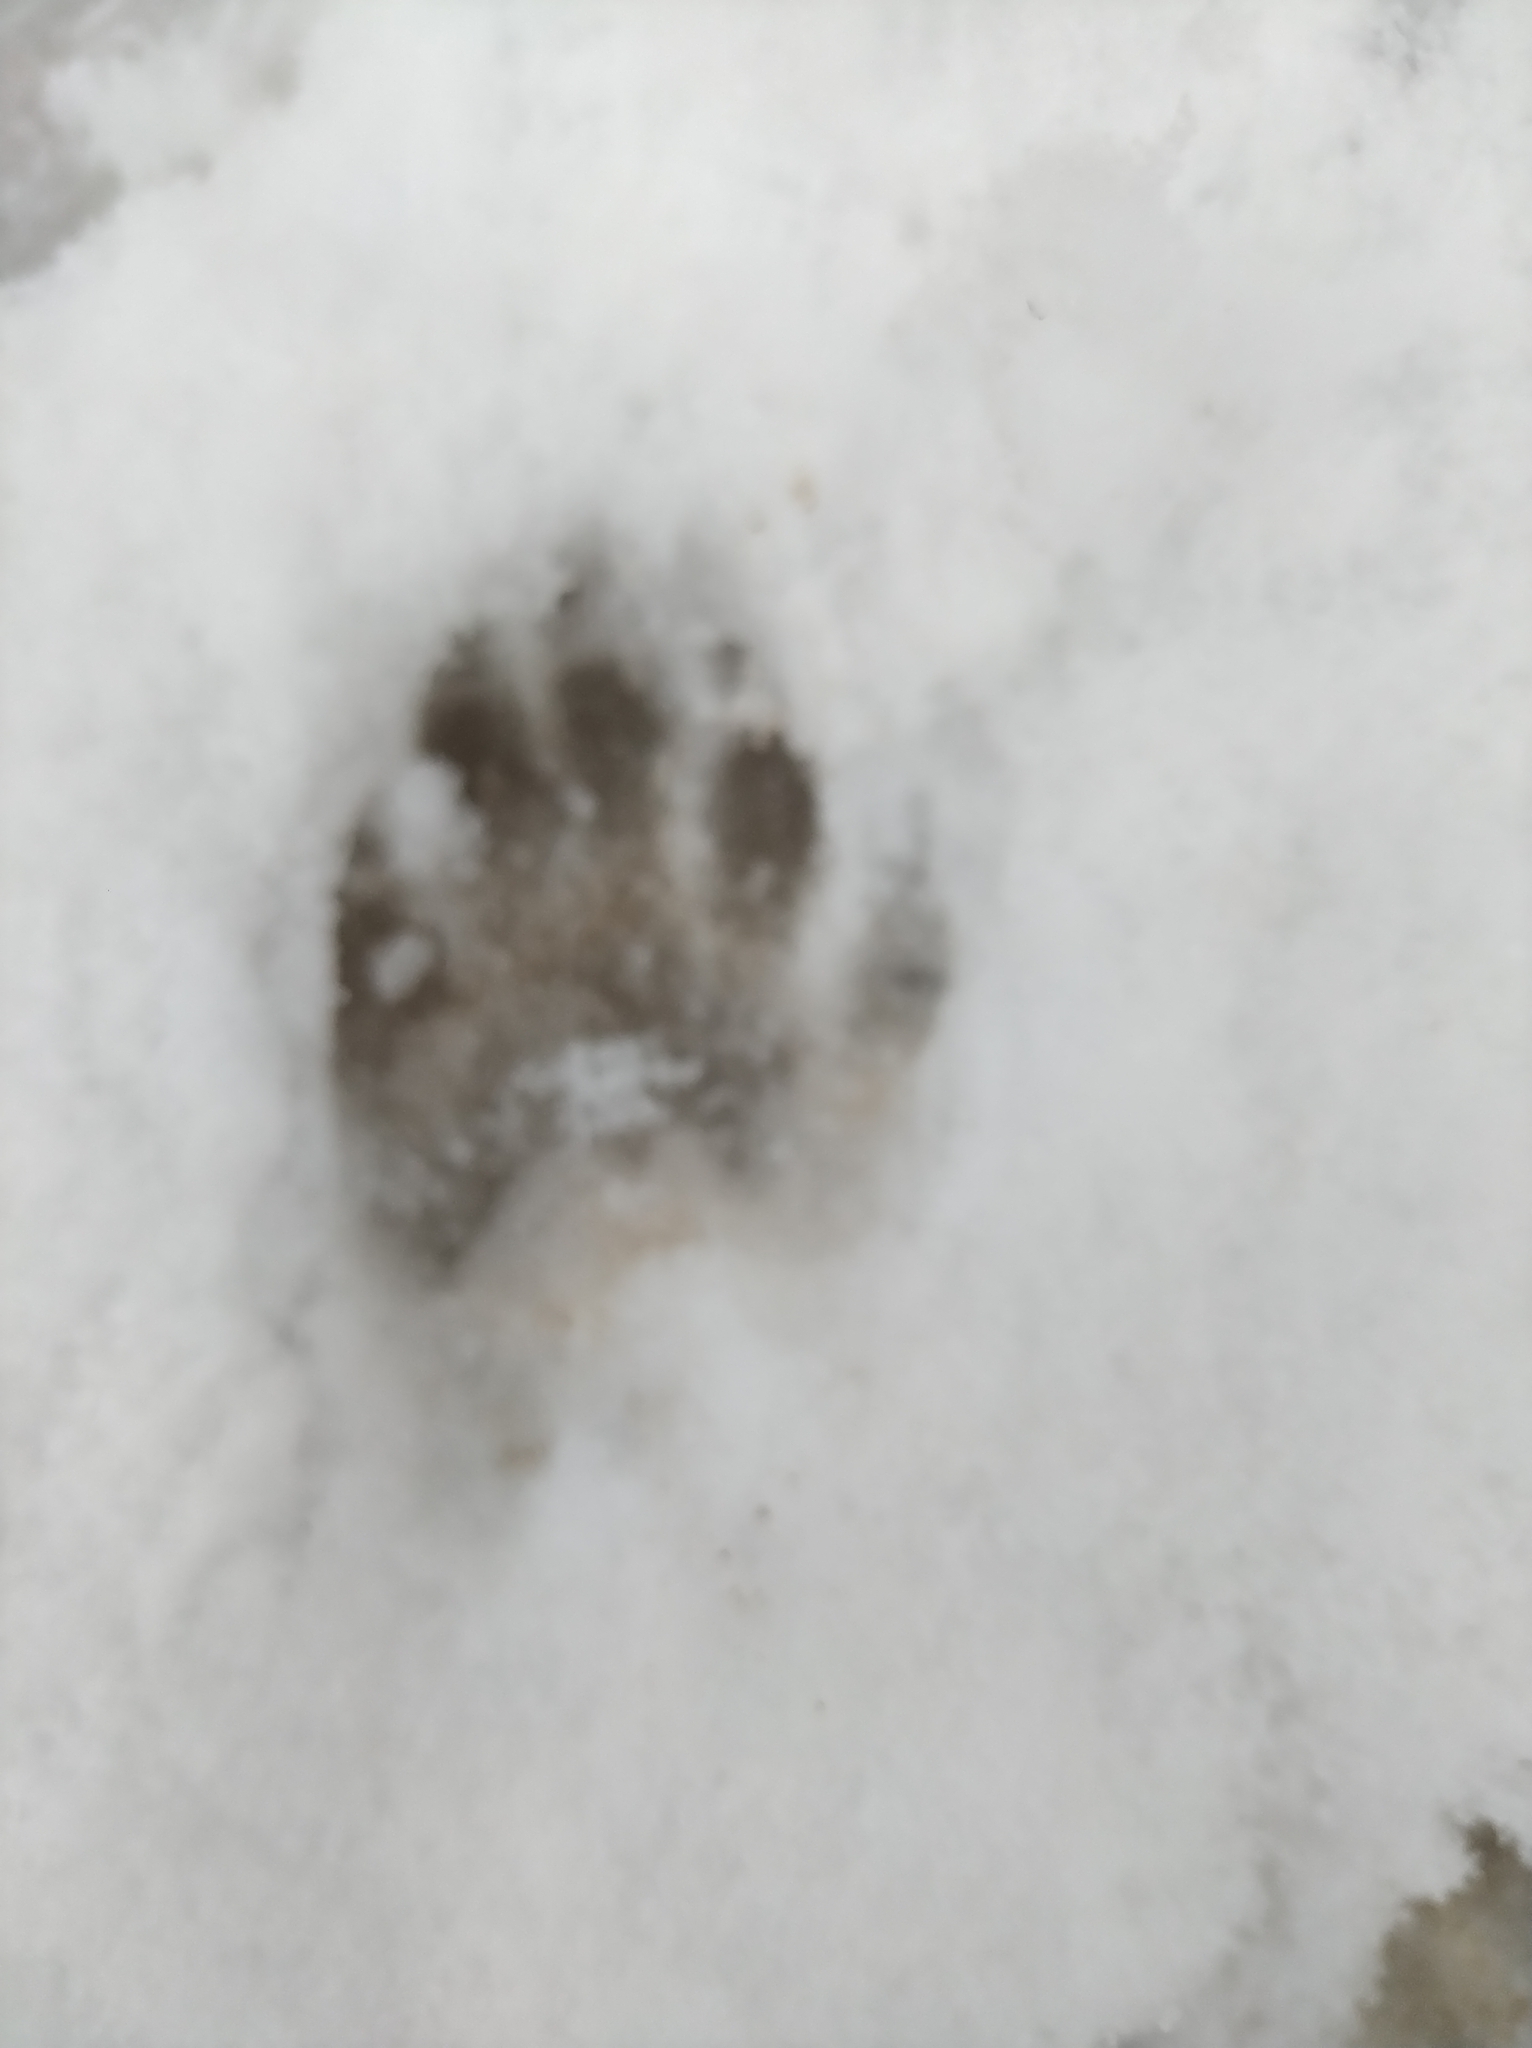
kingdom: Animalia
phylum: Chordata
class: Mammalia
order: Carnivora
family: Procyonidae
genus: Procyon
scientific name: Procyon lotor
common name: Raccoon
